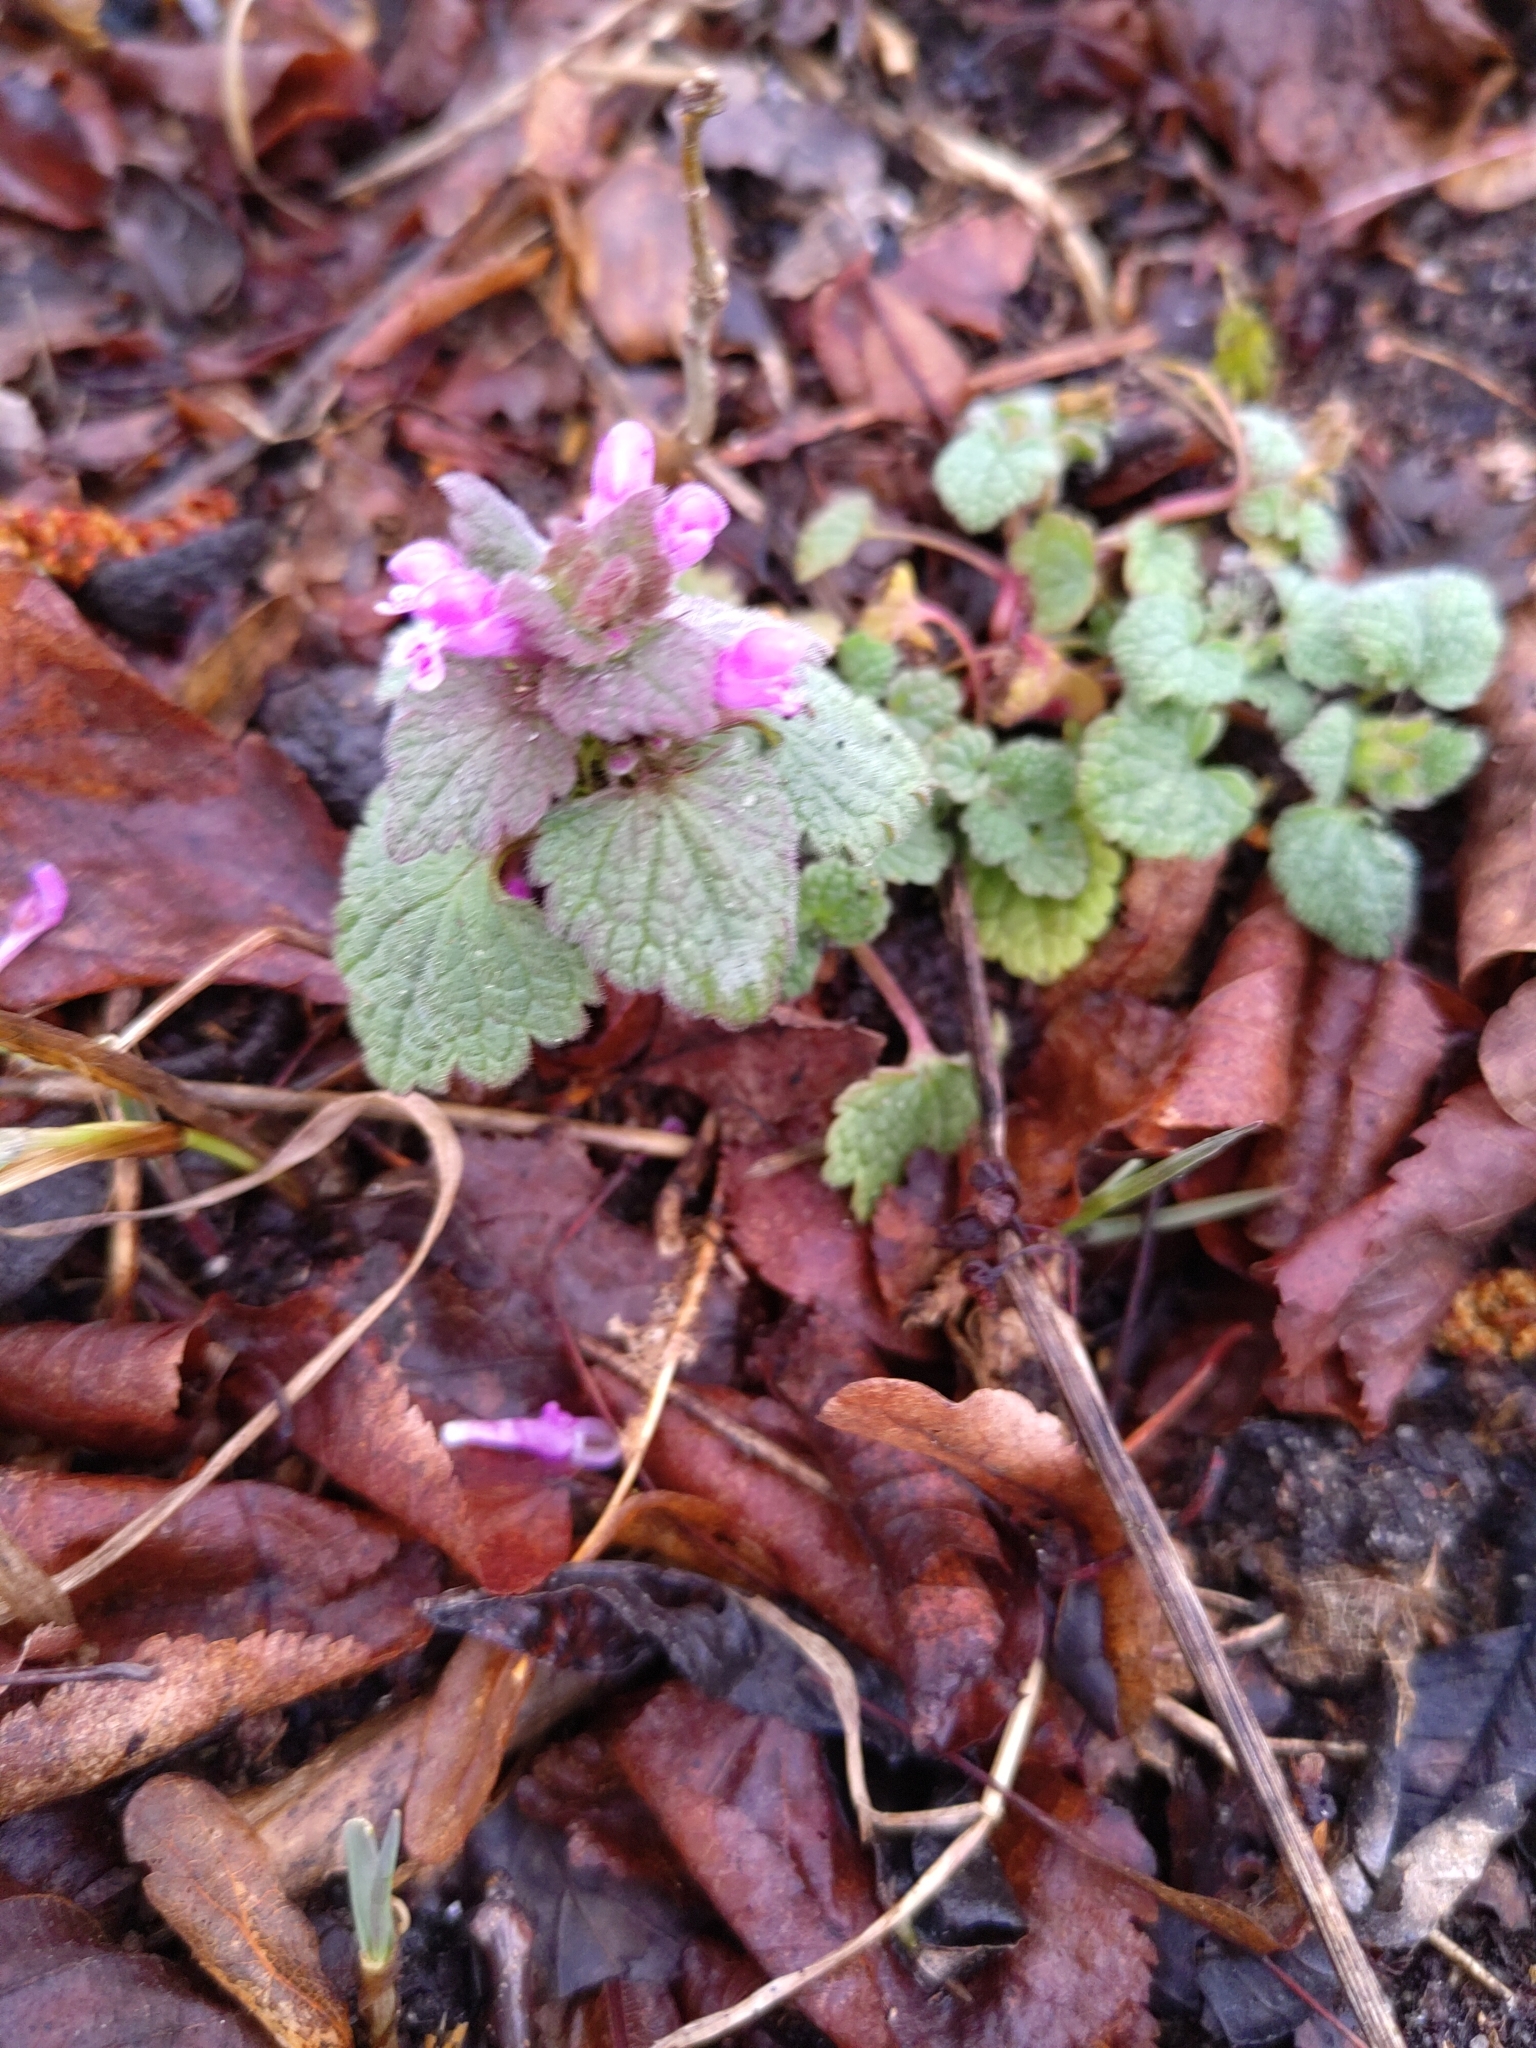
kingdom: Plantae
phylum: Tracheophyta
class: Magnoliopsida
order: Lamiales
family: Lamiaceae
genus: Lamium
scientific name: Lamium purpureum
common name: Red dead-nettle
